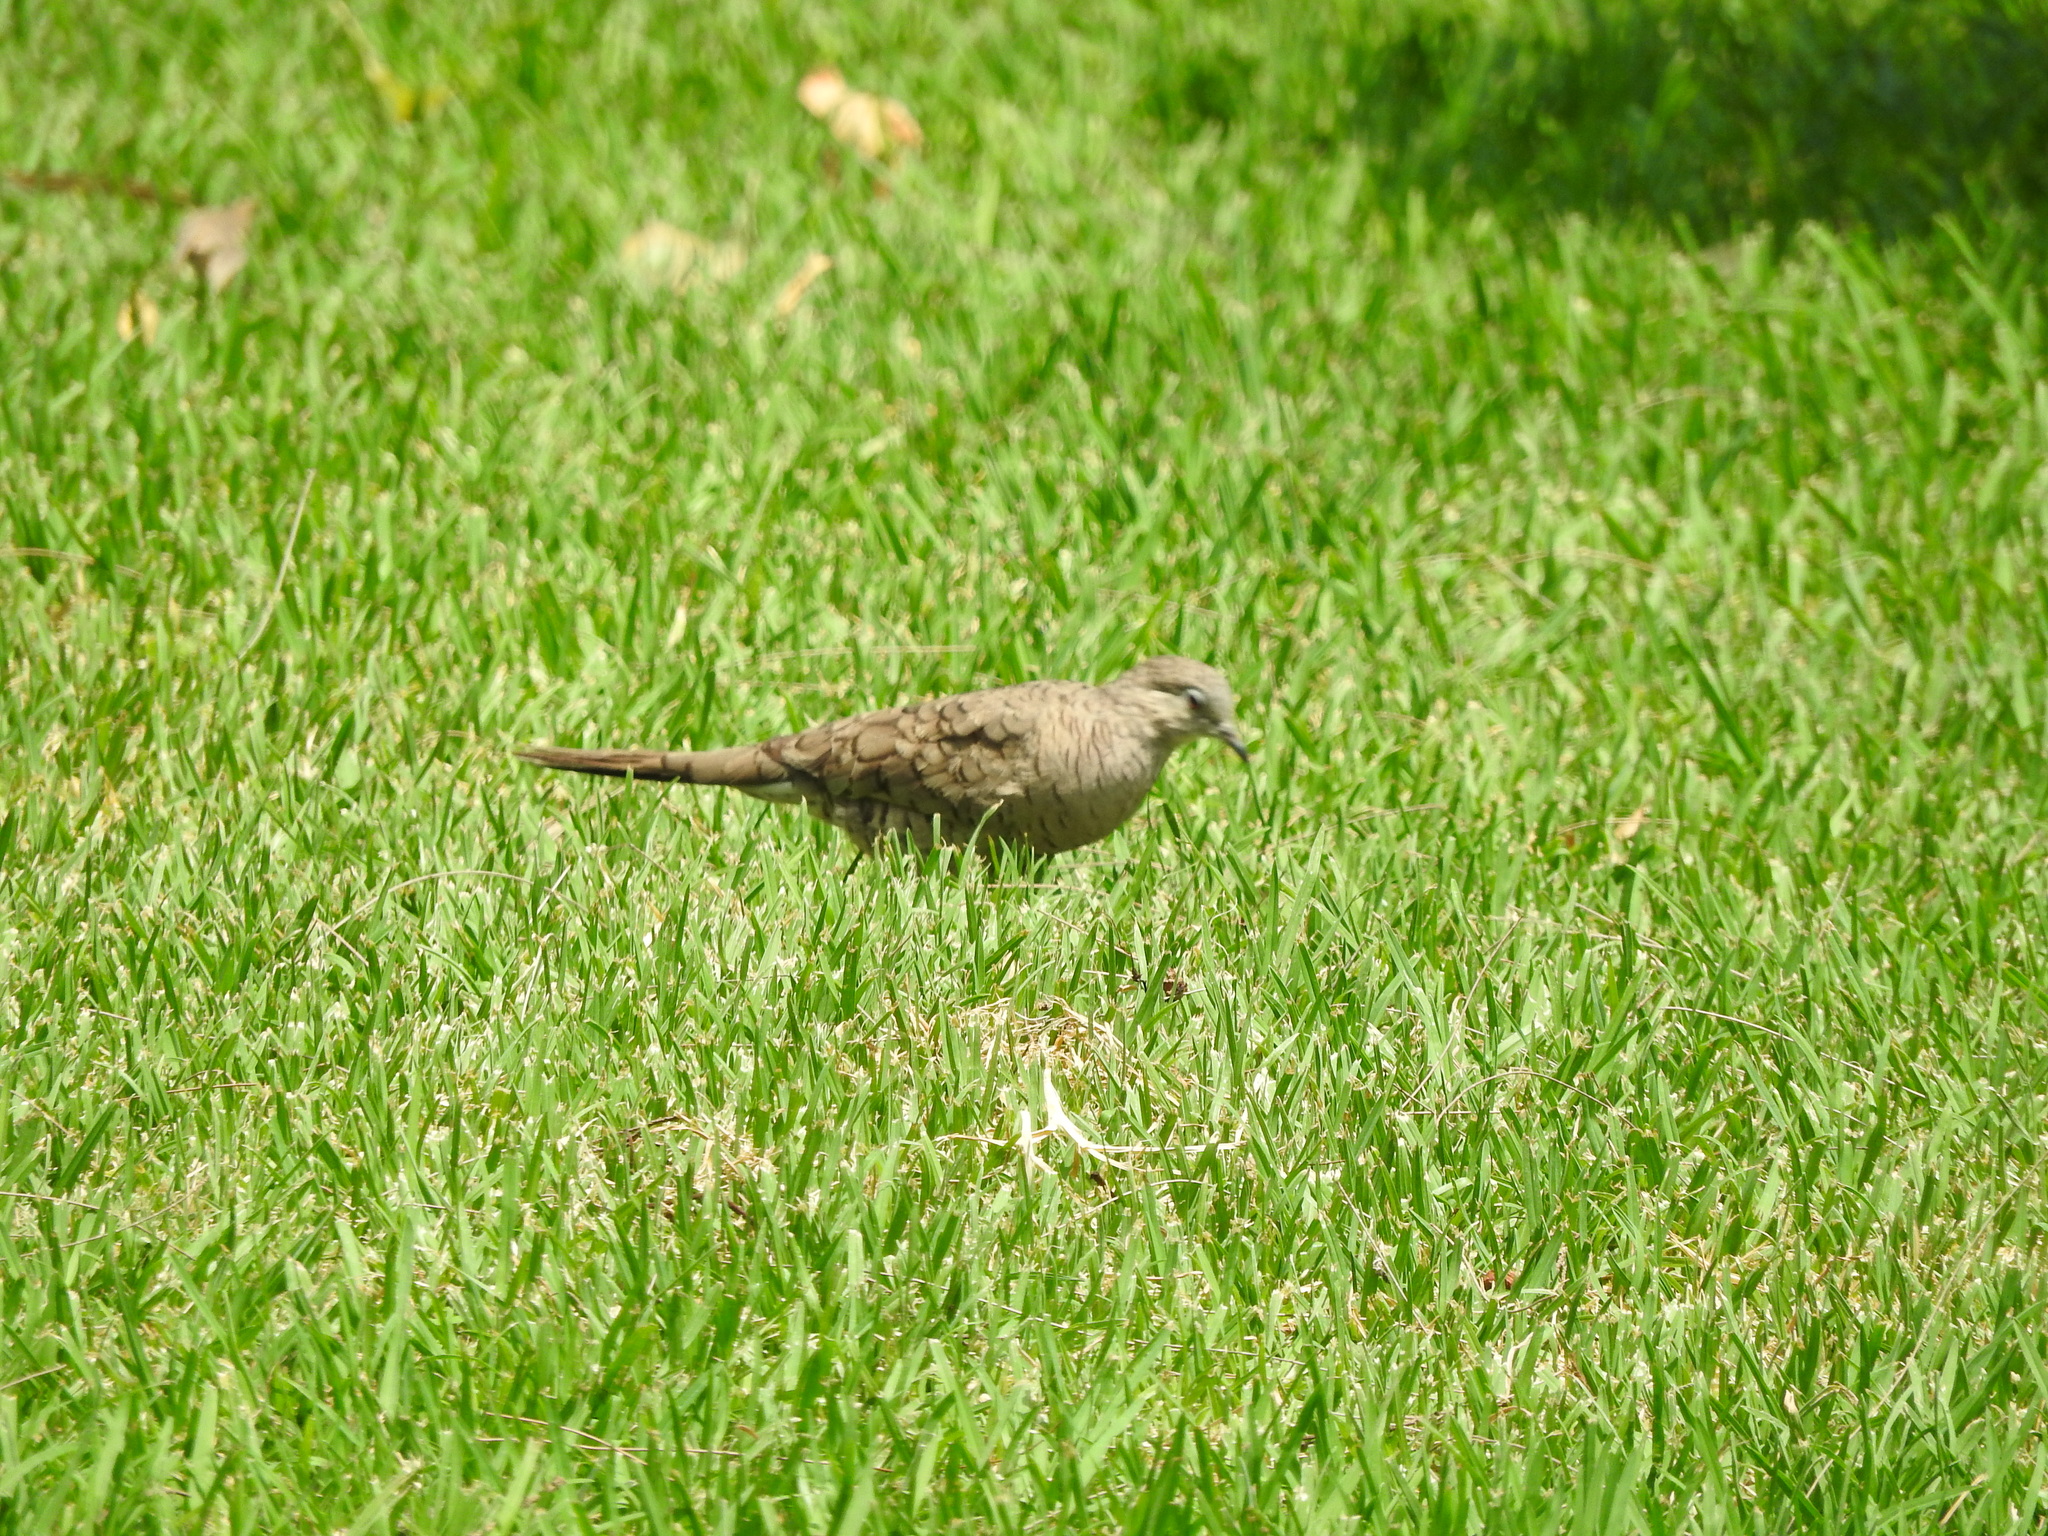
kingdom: Animalia
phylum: Chordata
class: Aves
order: Columbiformes
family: Columbidae
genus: Columbina
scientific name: Columbina inca
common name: Inca dove
